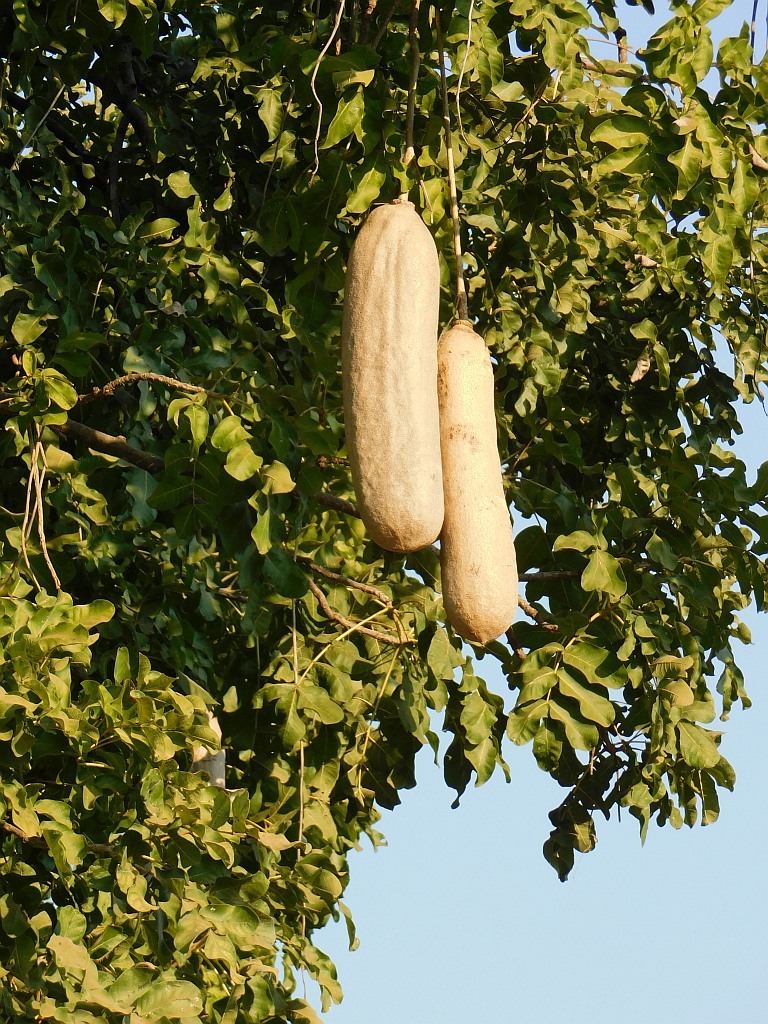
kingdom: Plantae
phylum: Tracheophyta
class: Magnoliopsida
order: Lamiales
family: Bignoniaceae
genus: Kigelia
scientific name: Kigelia africana
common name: Sausage tree
